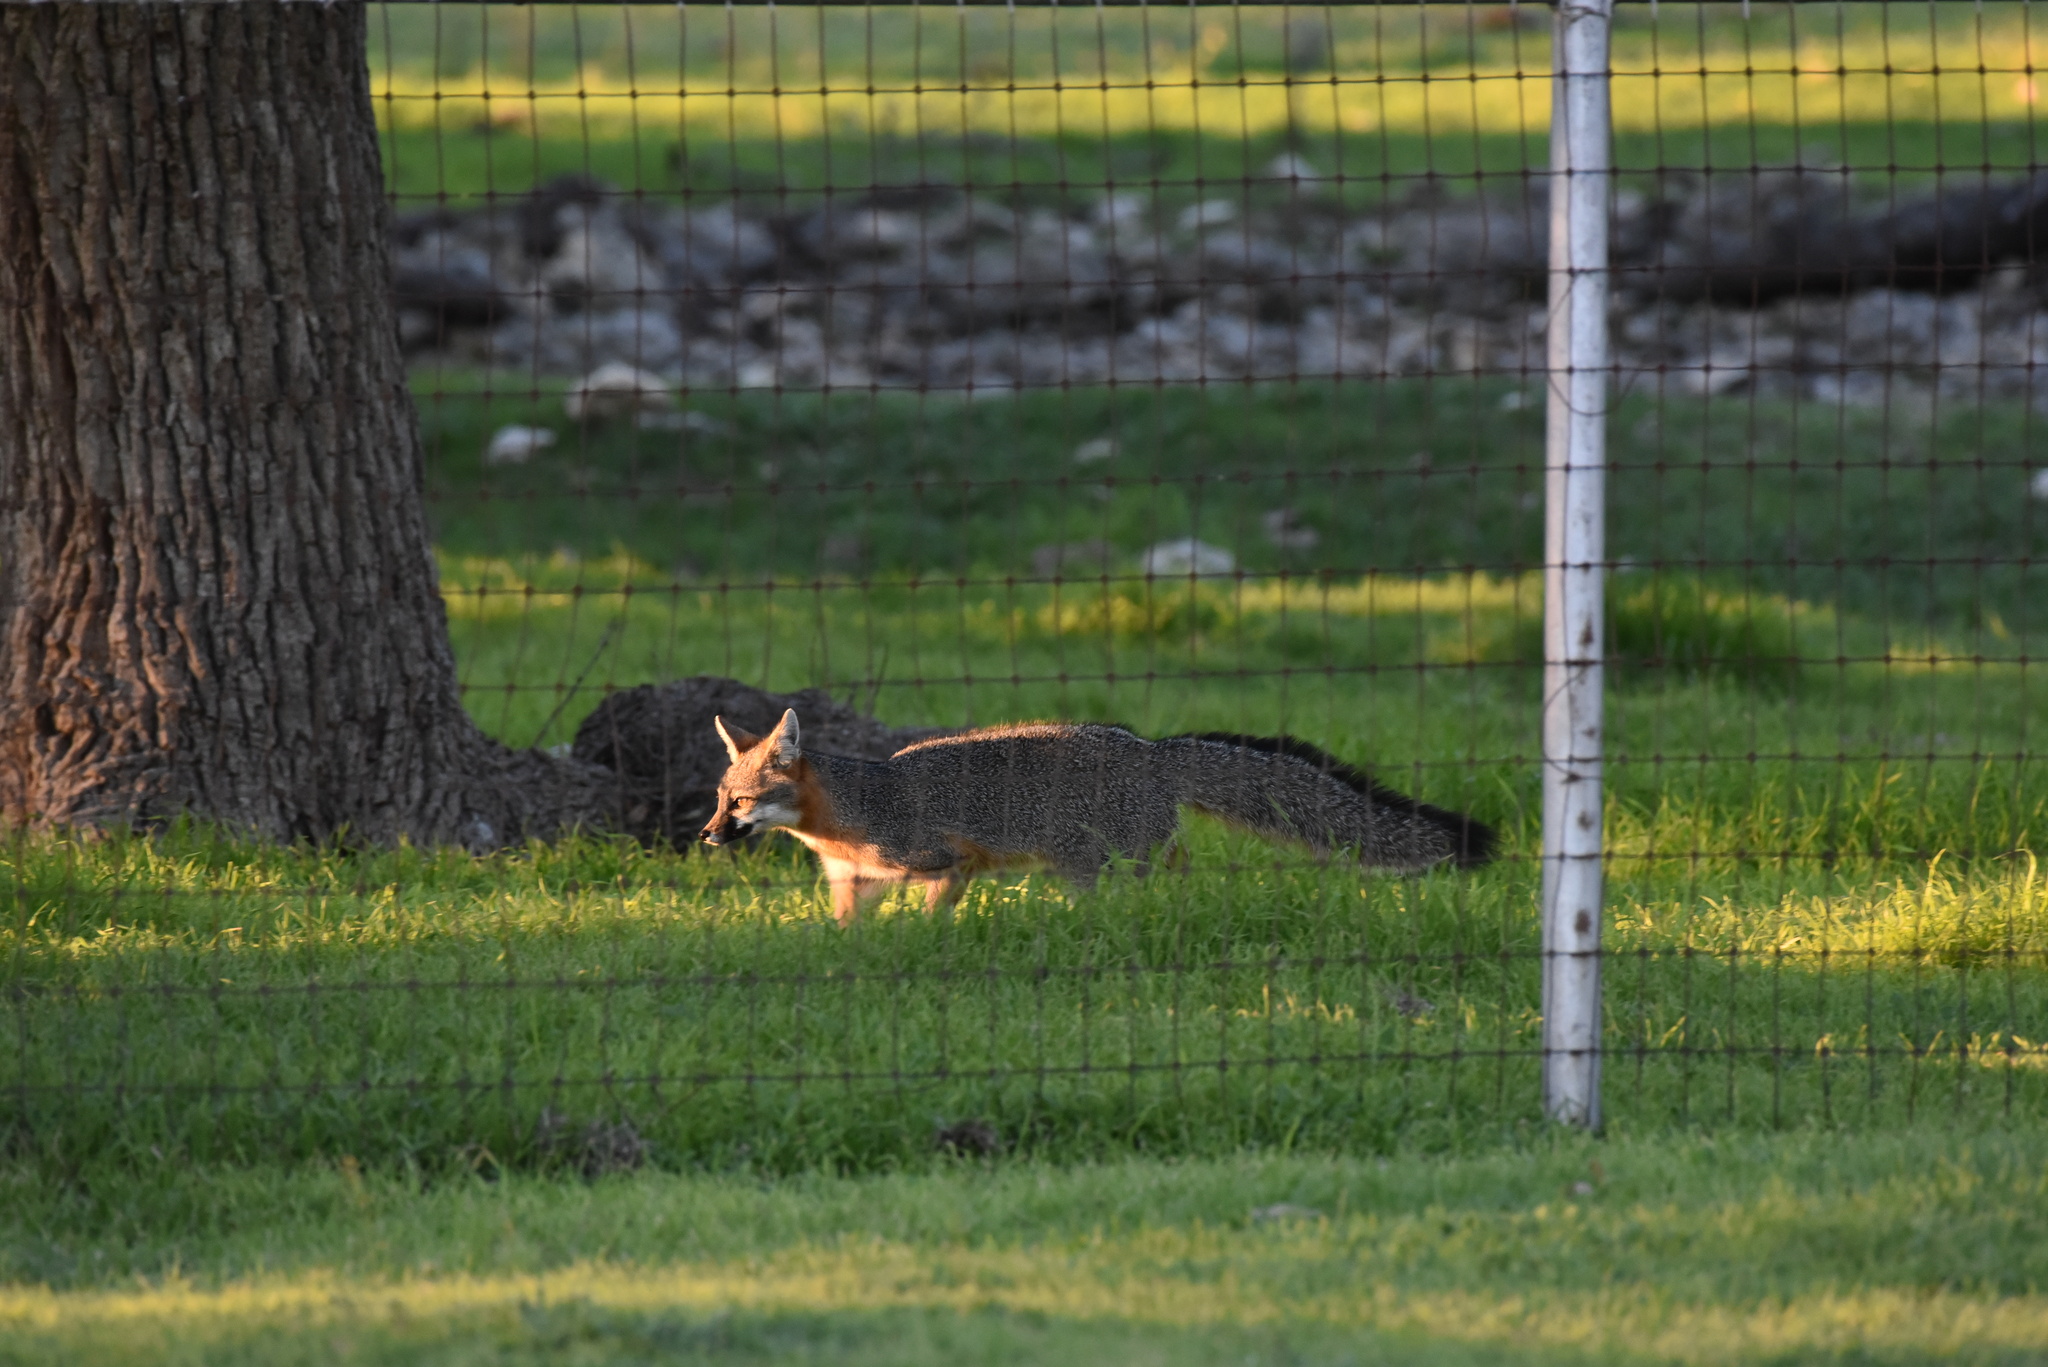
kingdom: Animalia
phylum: Chordata
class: Mammalia
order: Carnivora
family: Canidae
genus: Urocyon
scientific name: Urocyon cinereoargenteus
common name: Gray fox
